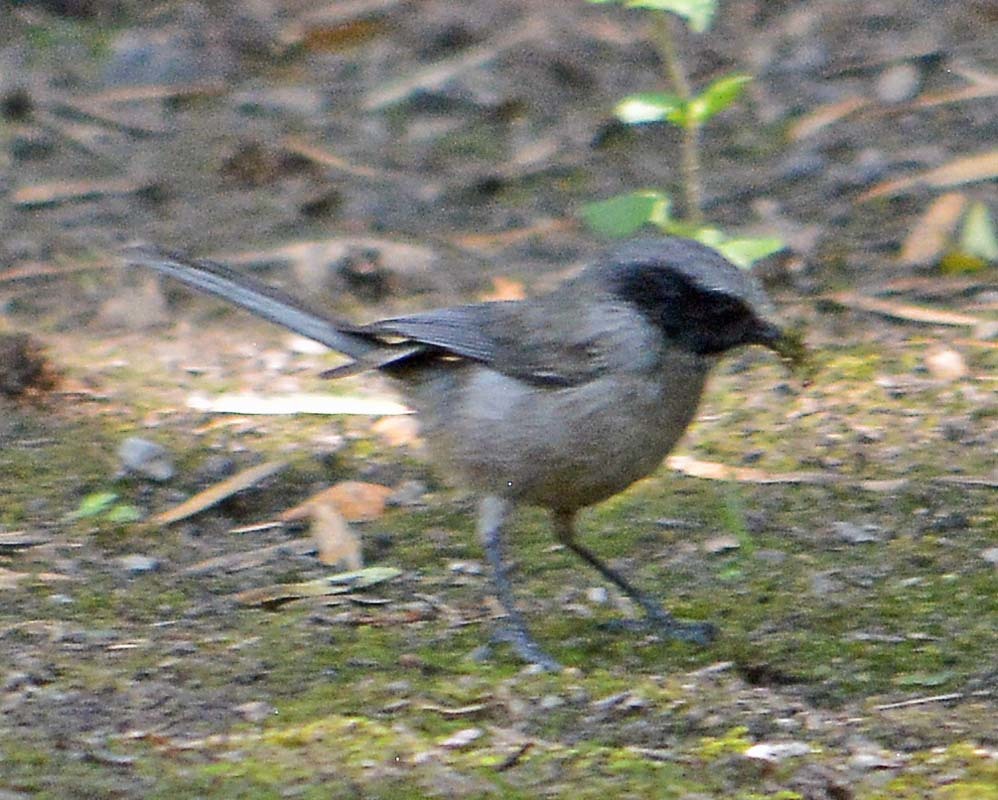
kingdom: Animalia
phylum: Chordata
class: Aves
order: Passeriformes
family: Aegithalidae
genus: Psaltriparus
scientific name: Psaltriparus minimus
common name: American bushtit
